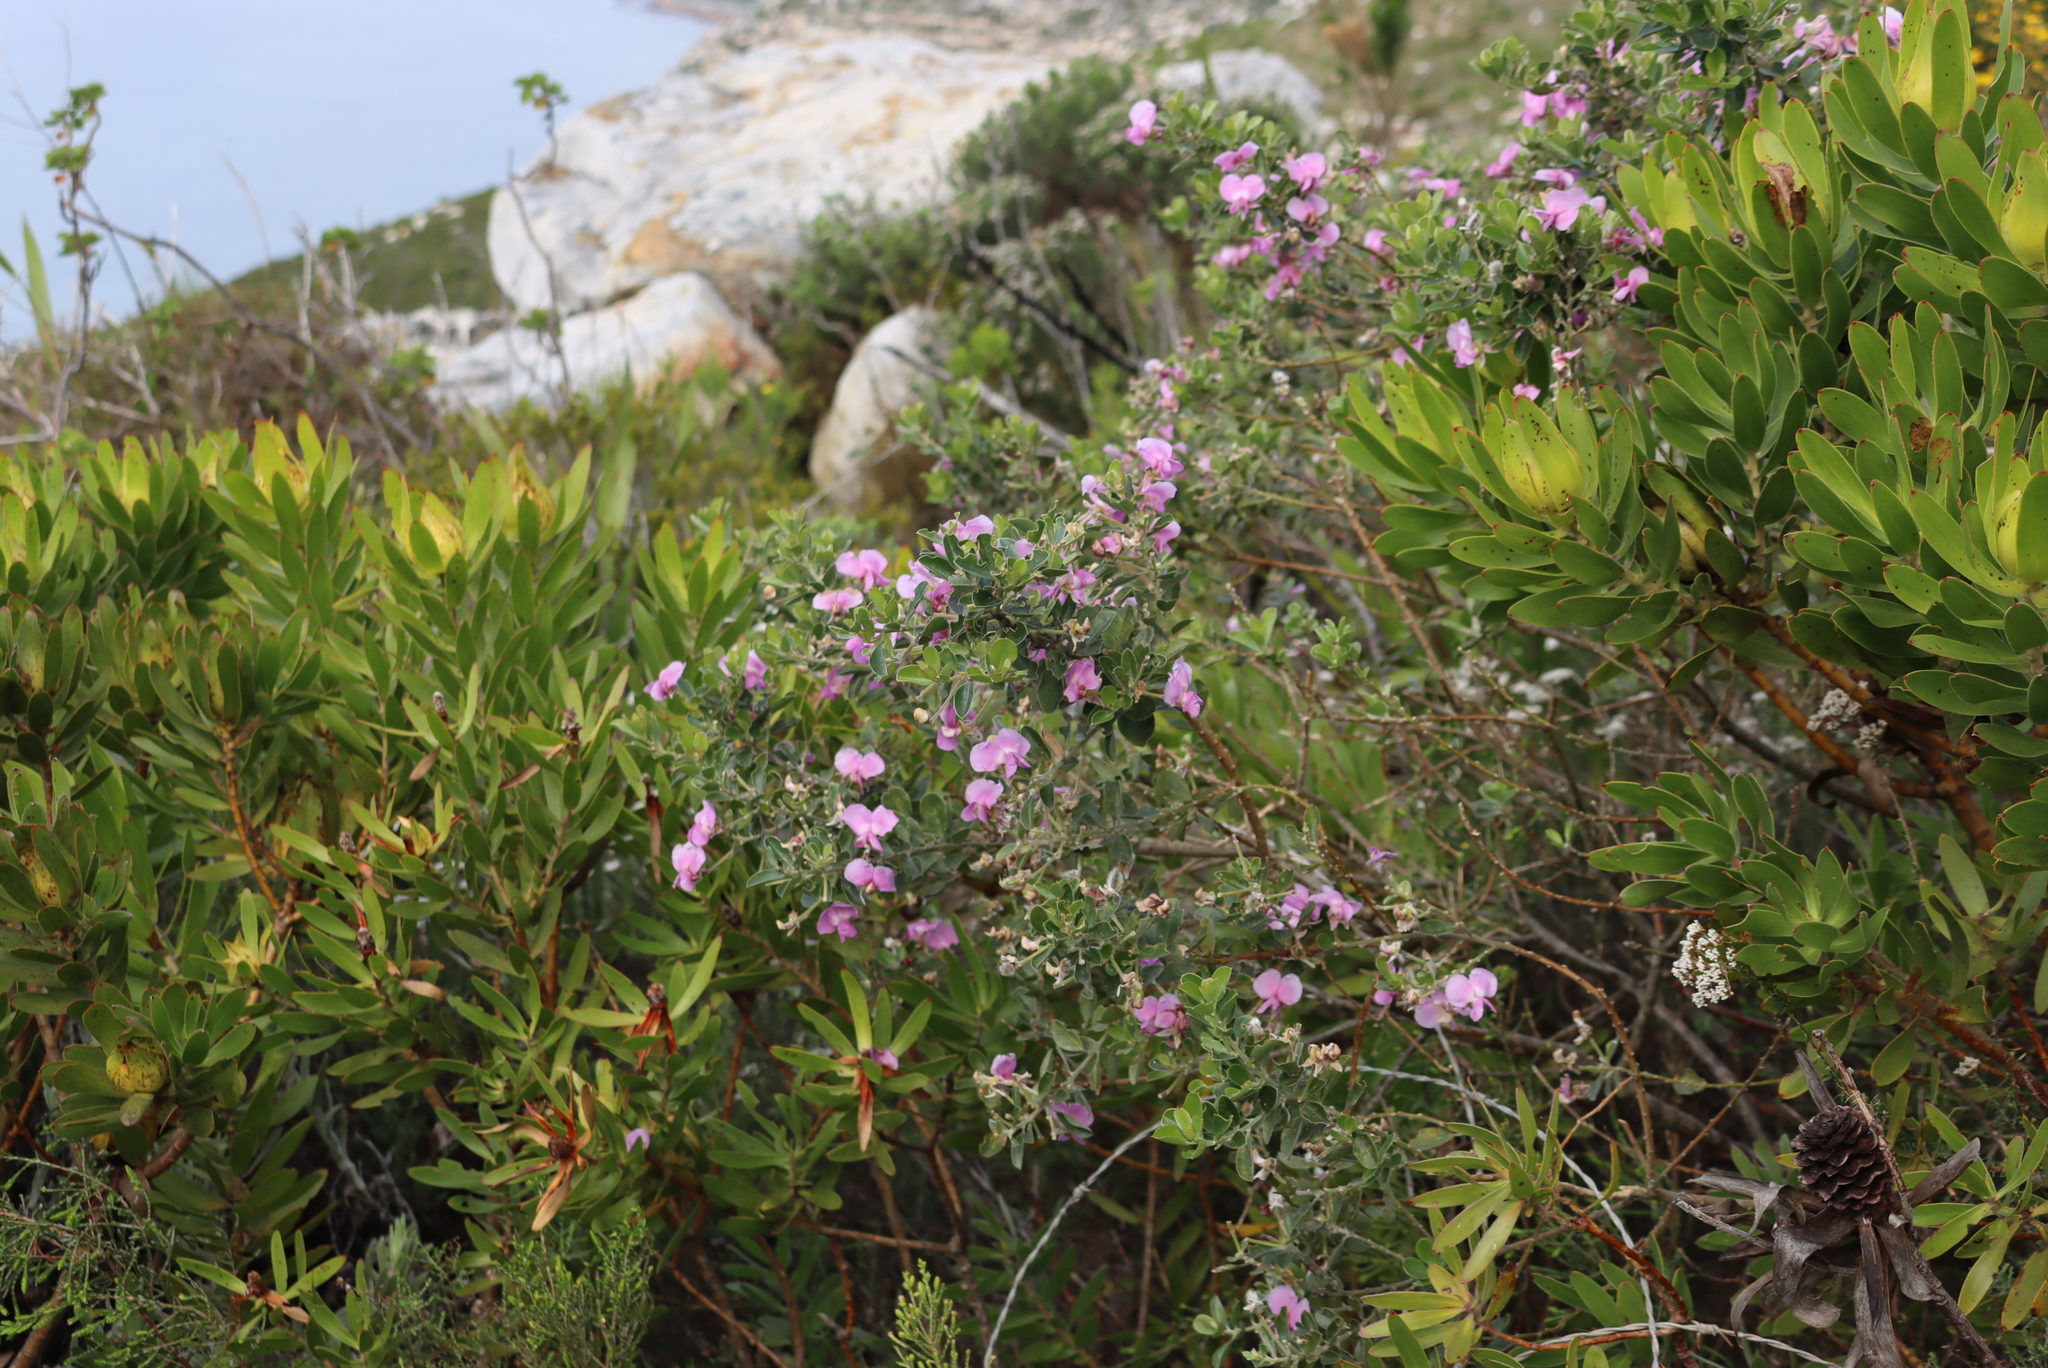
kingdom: Plantae
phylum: Tracheophyta
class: Magnoliopsida
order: Fabales
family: Fabaceae
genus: Podalyria
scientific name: Podalyria calyptrata
